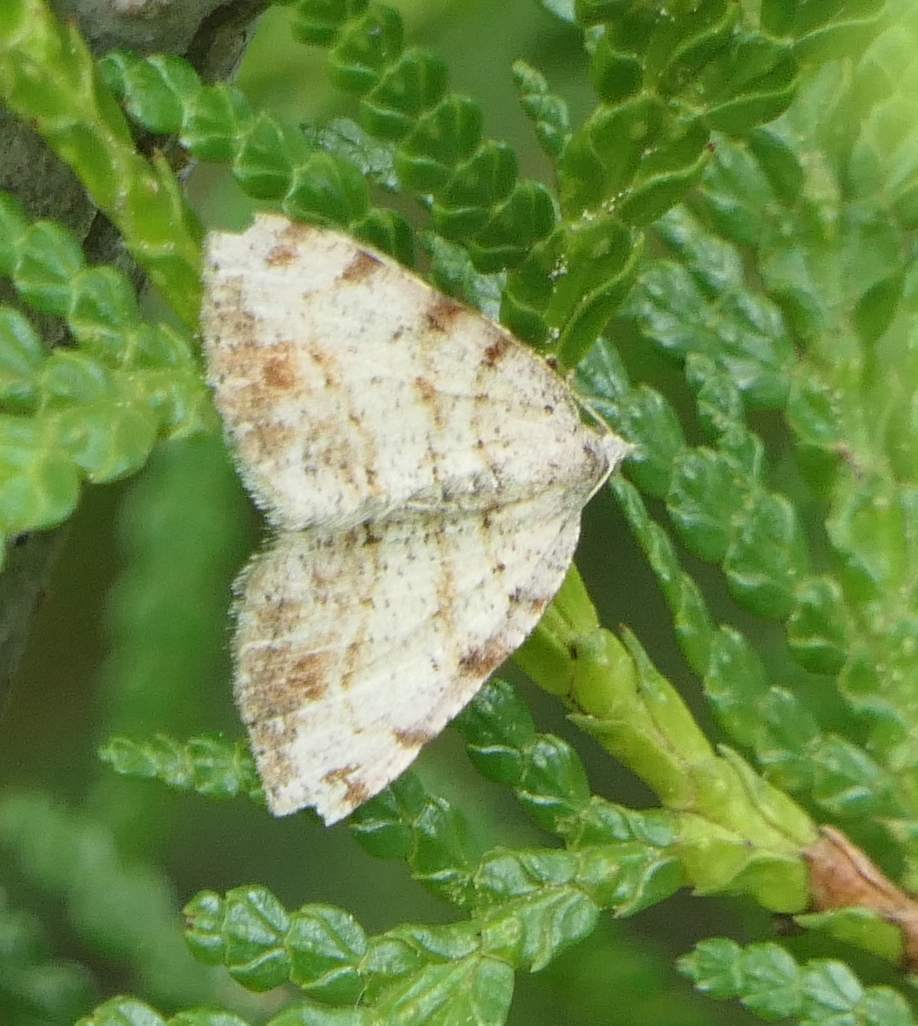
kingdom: Animalia
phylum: Arthropoda
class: Insecta
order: Lepidoptera
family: Geometridae
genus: Macaria
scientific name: Macaria exauspicata
